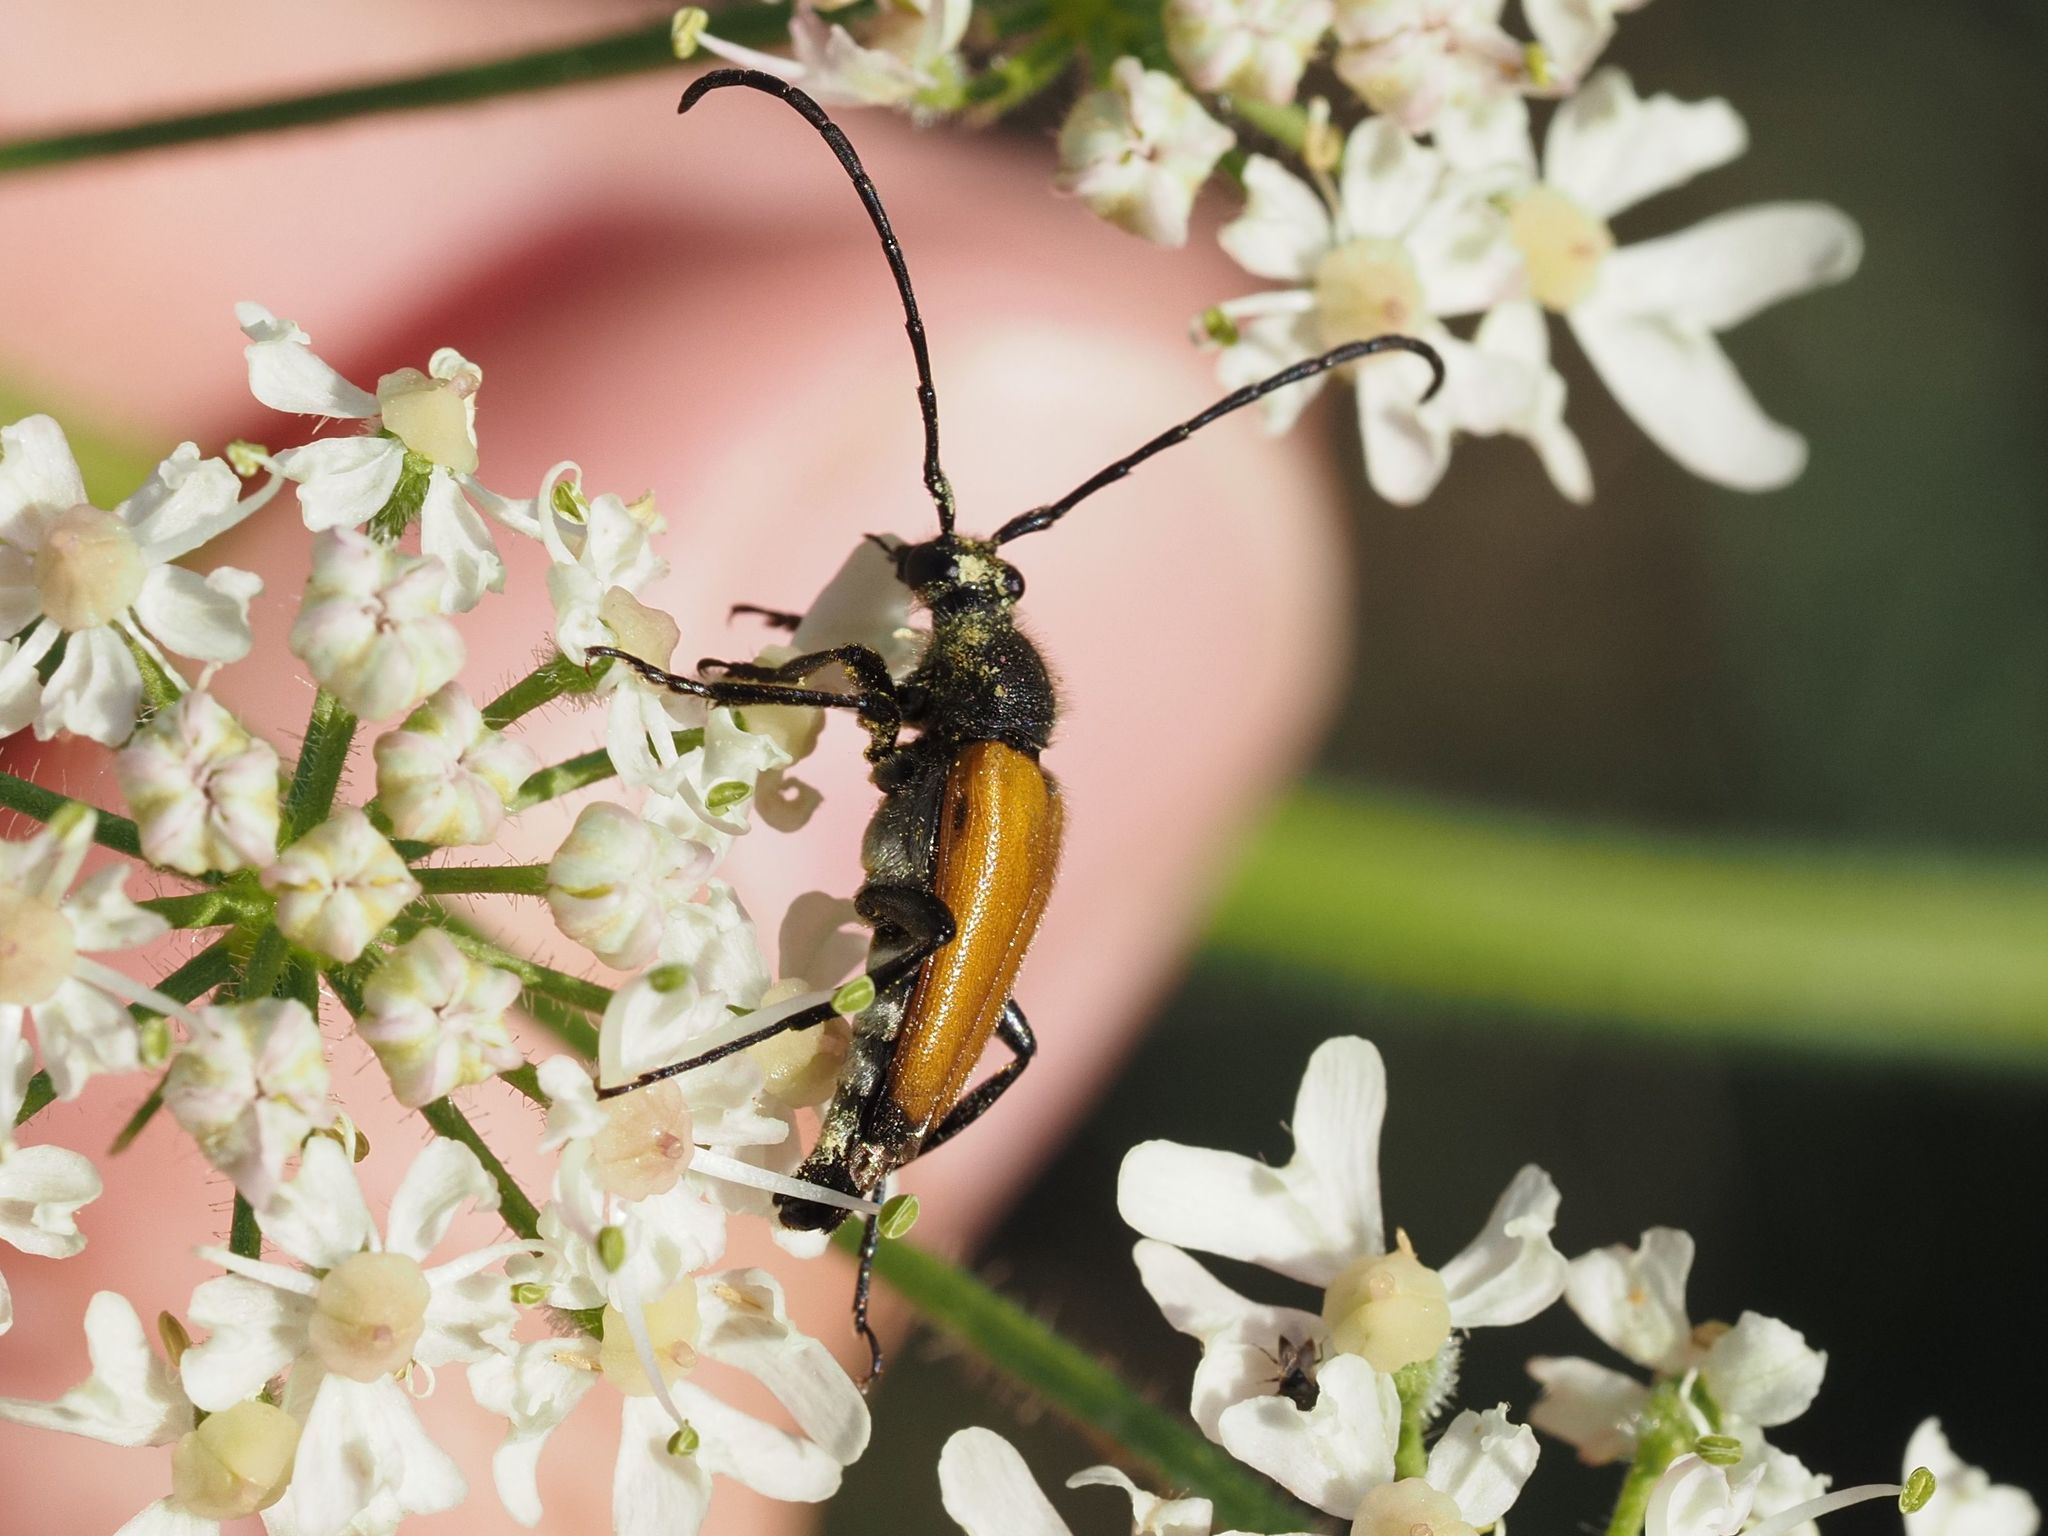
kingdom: Animalia
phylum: Arthropoda
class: Insecta
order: Coleoptera
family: Cerambycidae
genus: Paracorymbia
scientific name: Paracorymbia fulva
